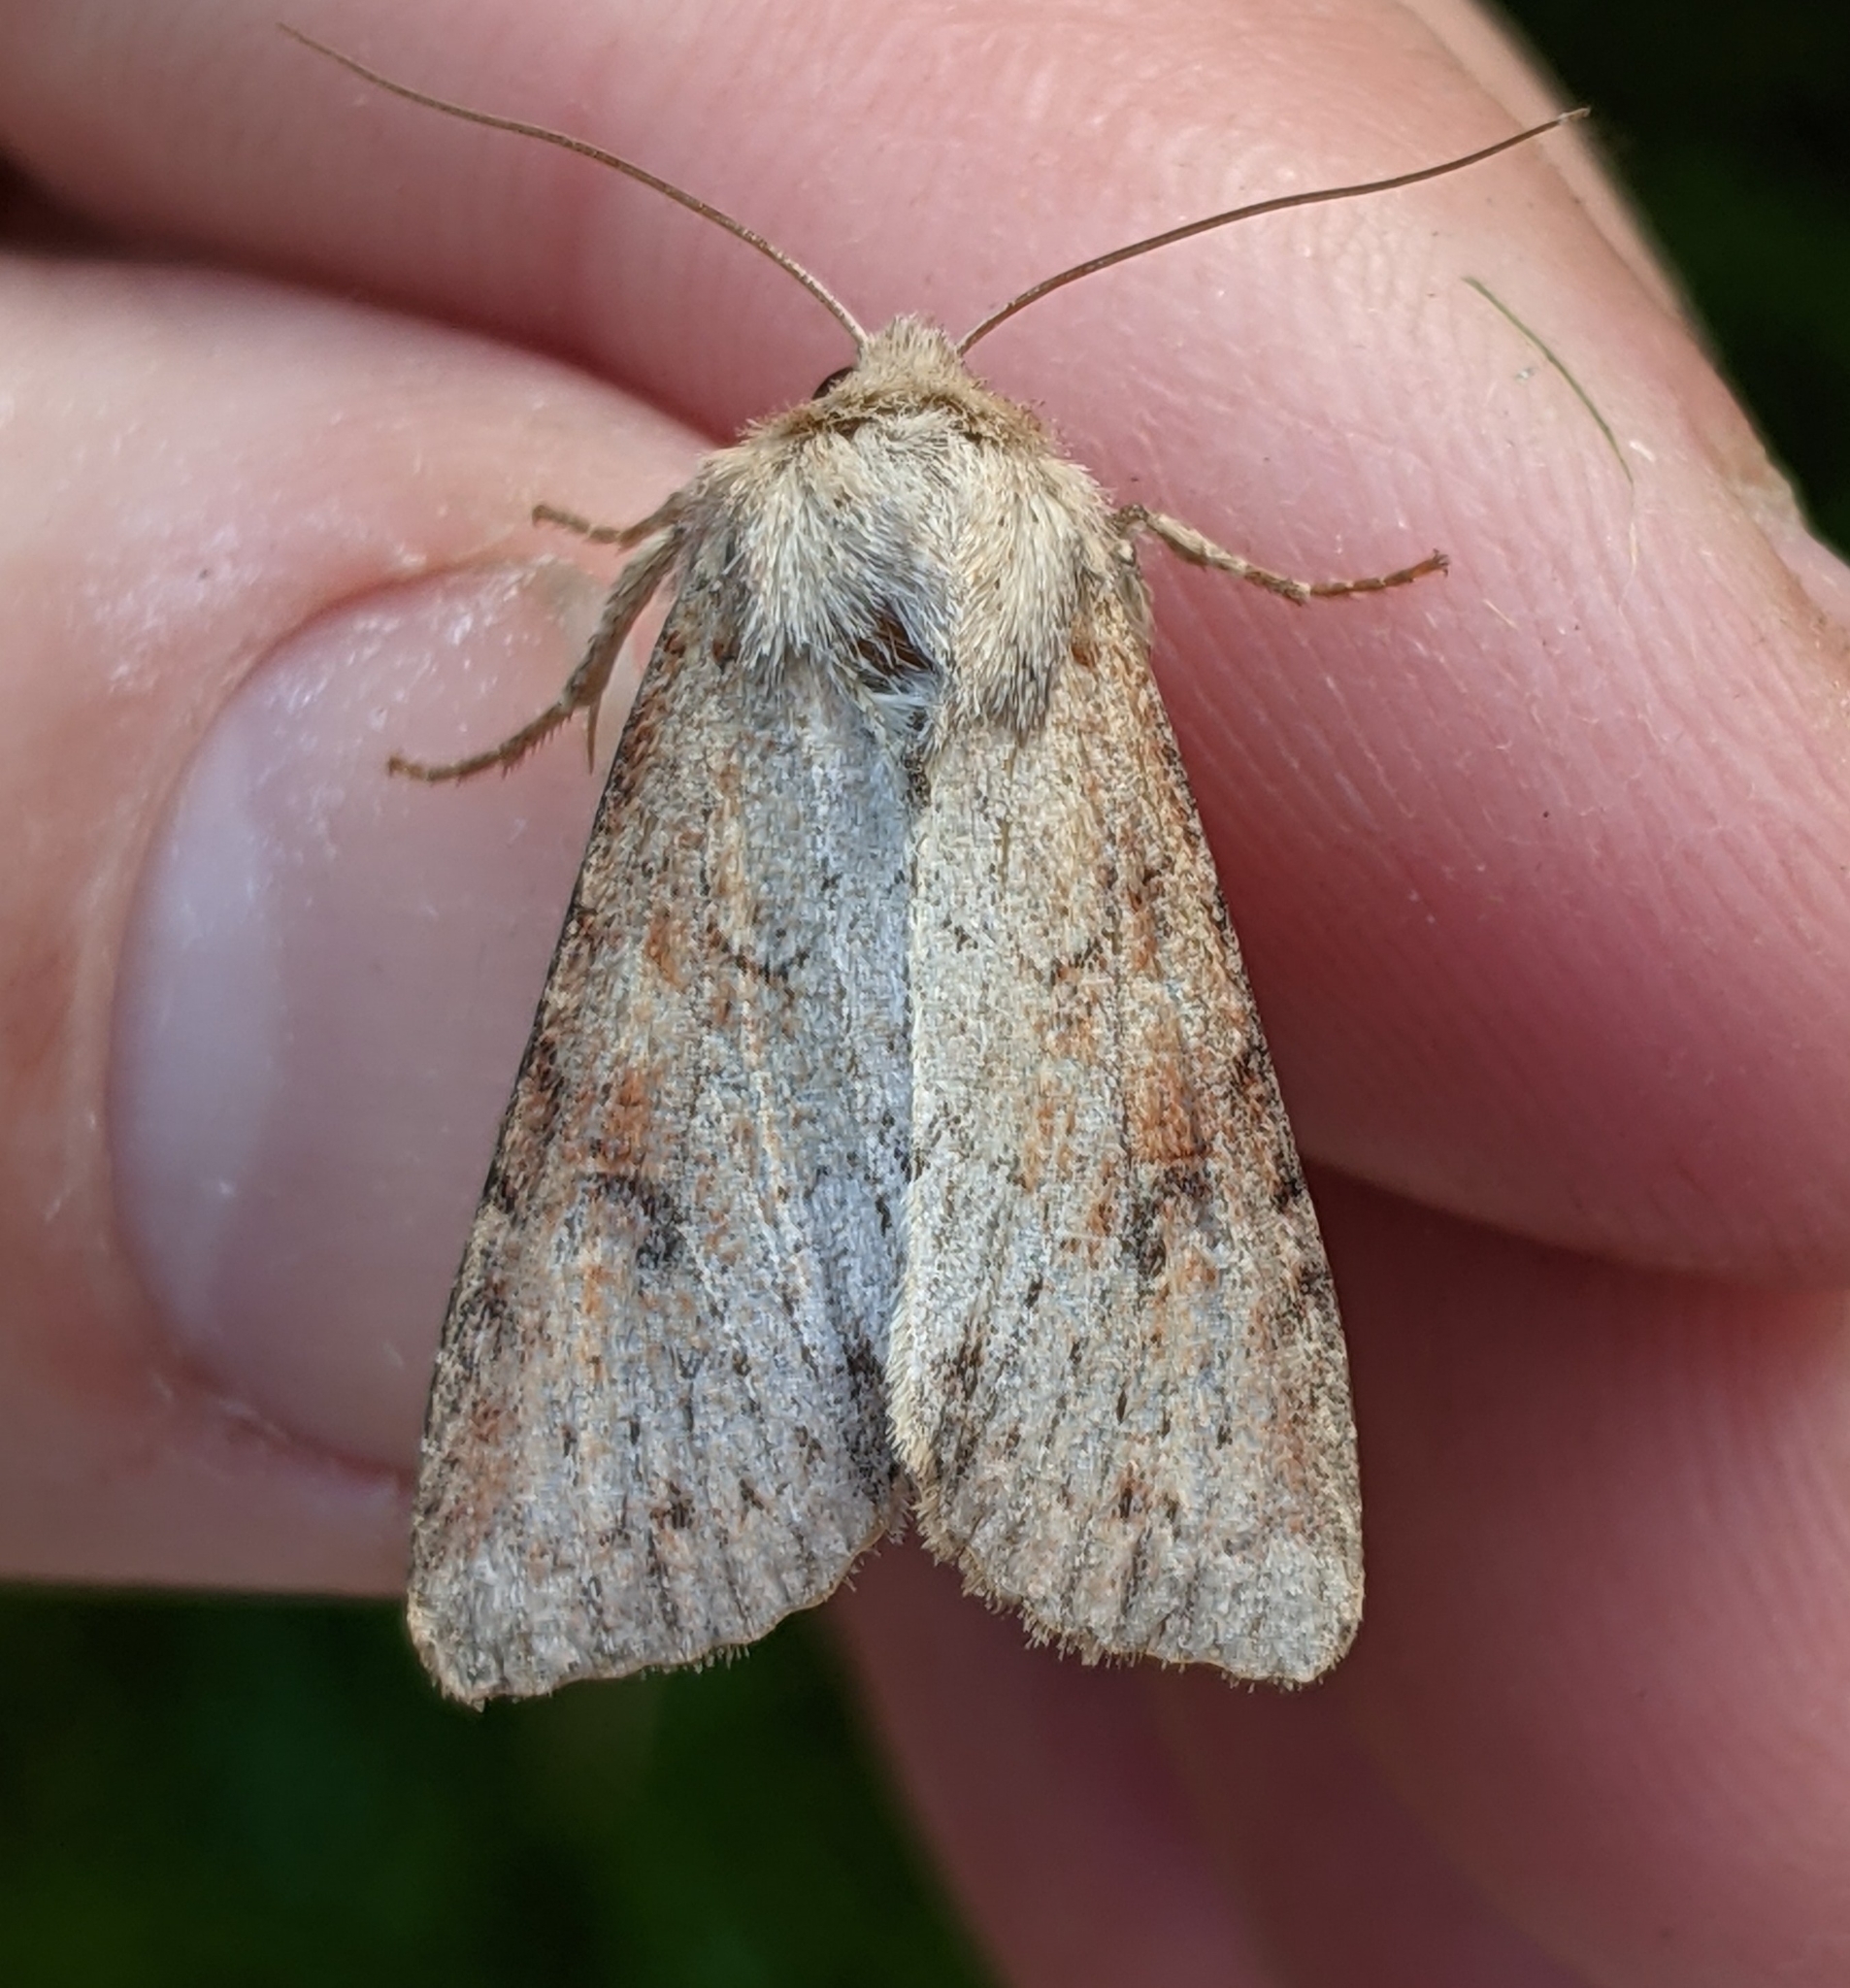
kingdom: Animalia
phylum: Arthropoda
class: Insecta
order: Lepidoptera
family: Noctuidae
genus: Apamea
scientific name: Apamea alia
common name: Fox apamea
